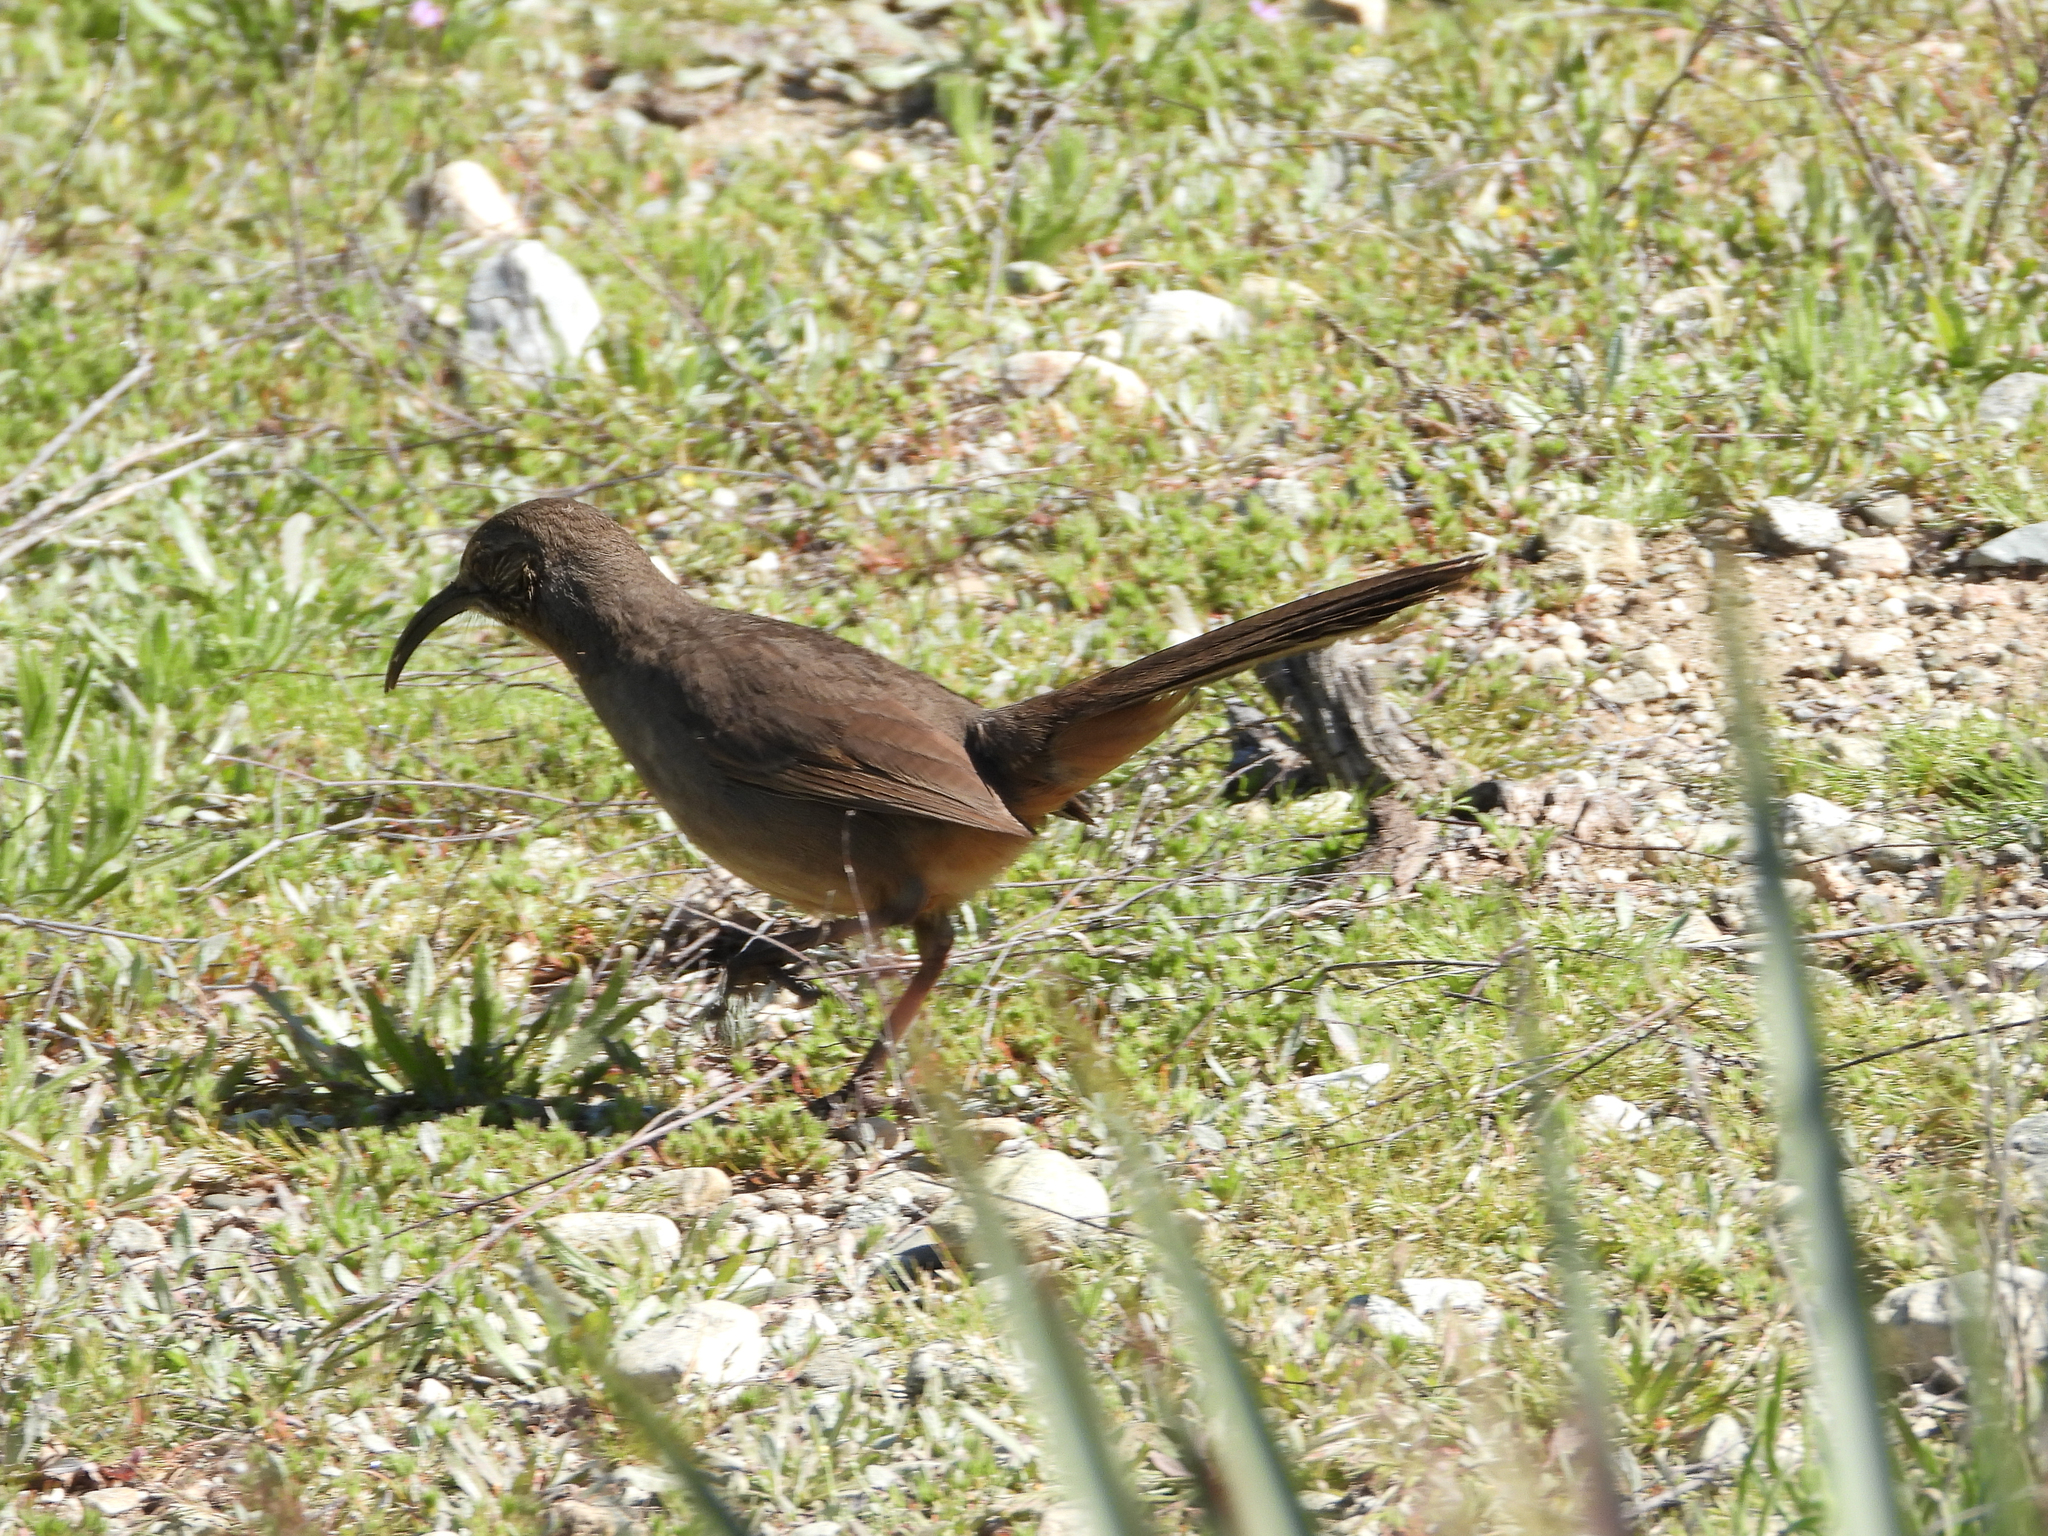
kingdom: Animalia
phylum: Chordata
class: Aves
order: Passeriformes
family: Mimidae
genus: Toxostoma
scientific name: Toxostoma redivivum
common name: California thrasher
